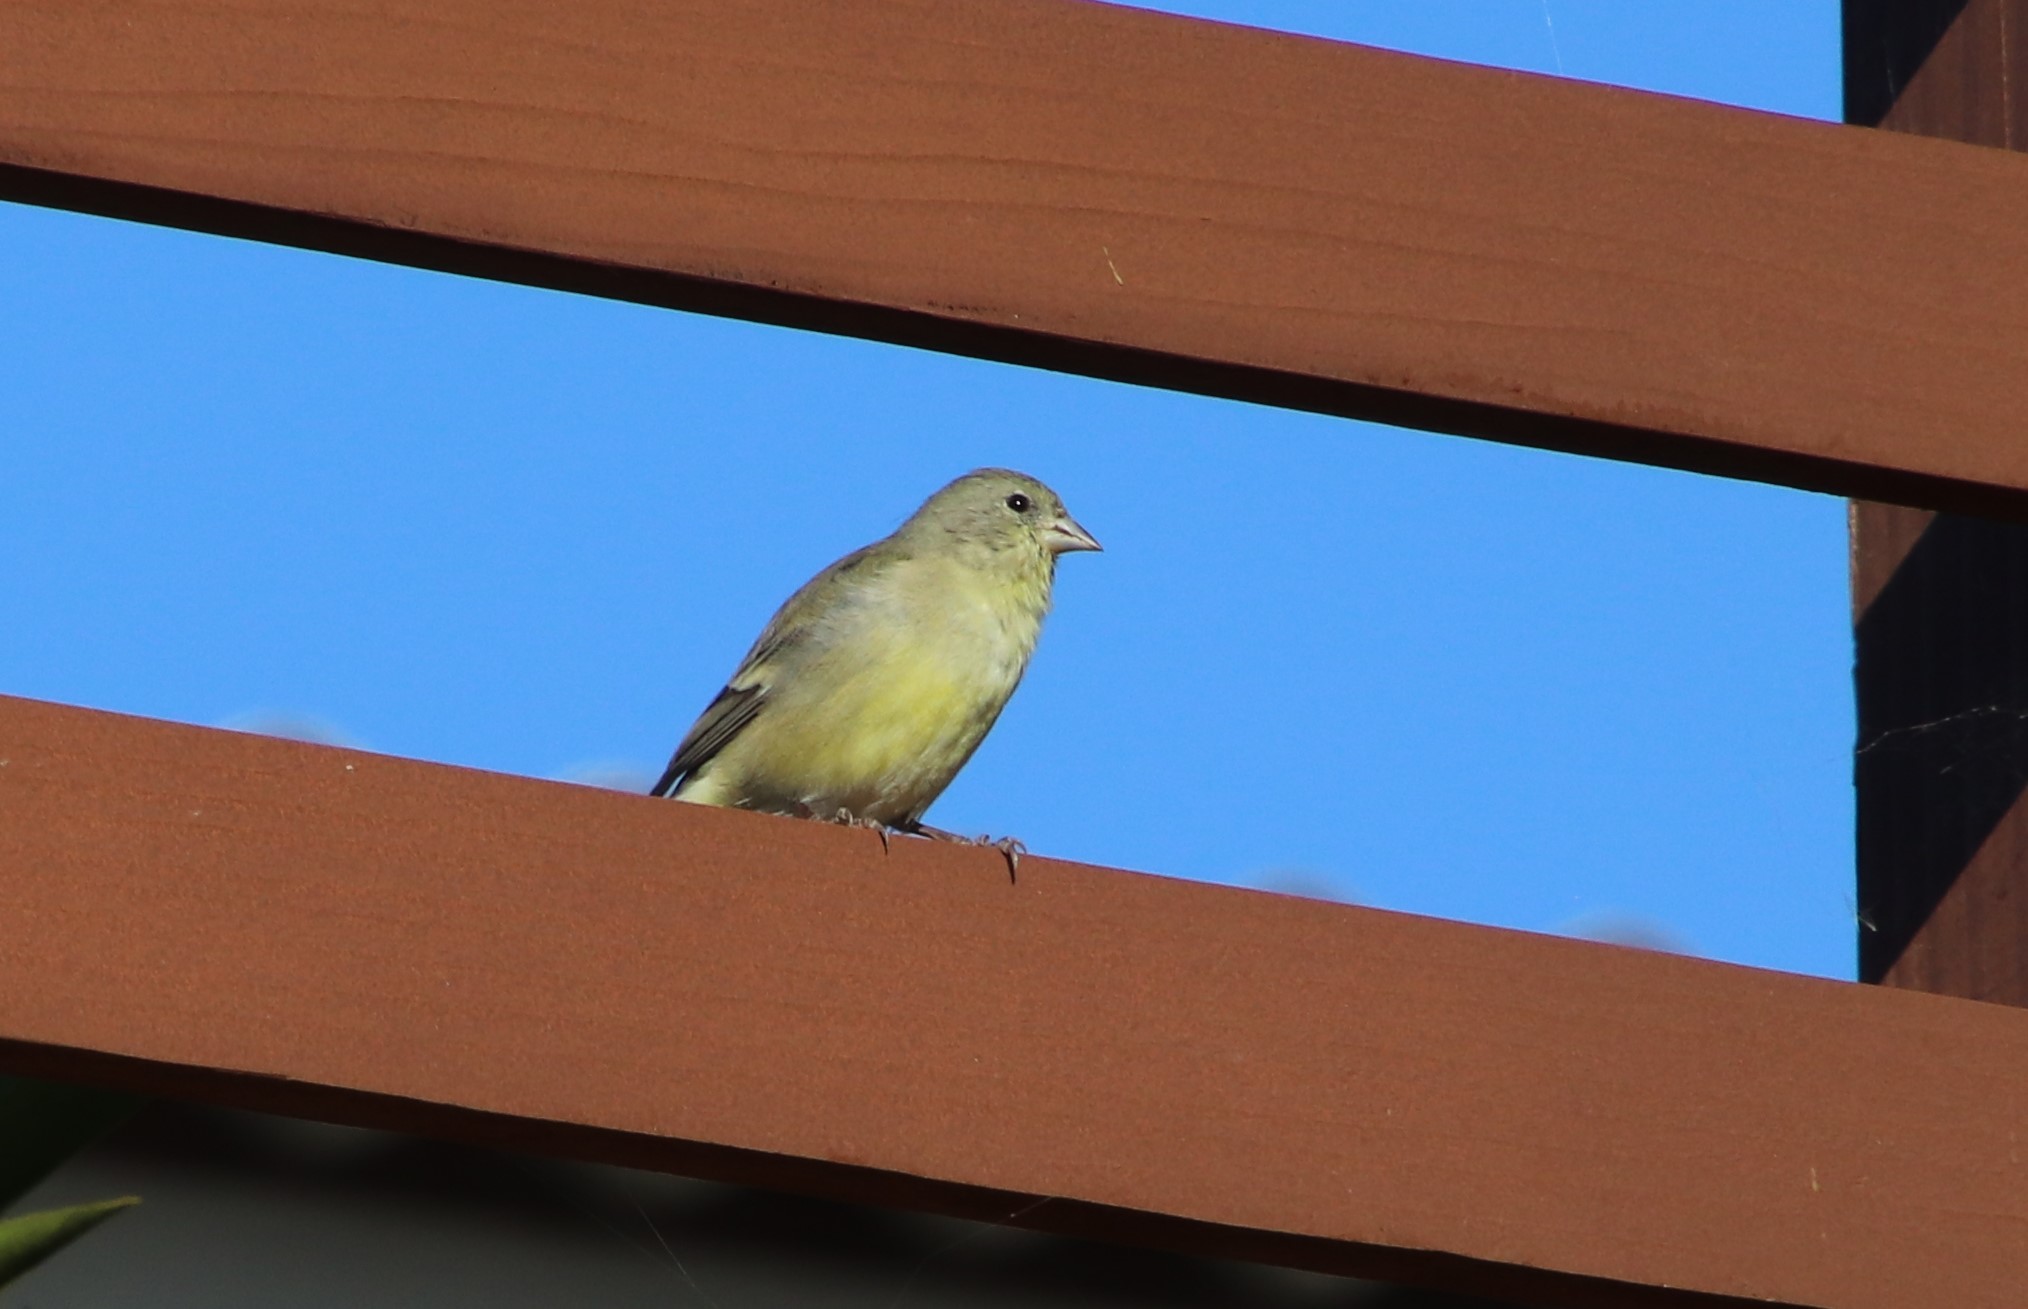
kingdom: Animalia
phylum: Chordata
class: Aves
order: Passeriformes
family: Fringillidae
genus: Spinus
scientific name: Spinus psaltria
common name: Lesser goldfinch
